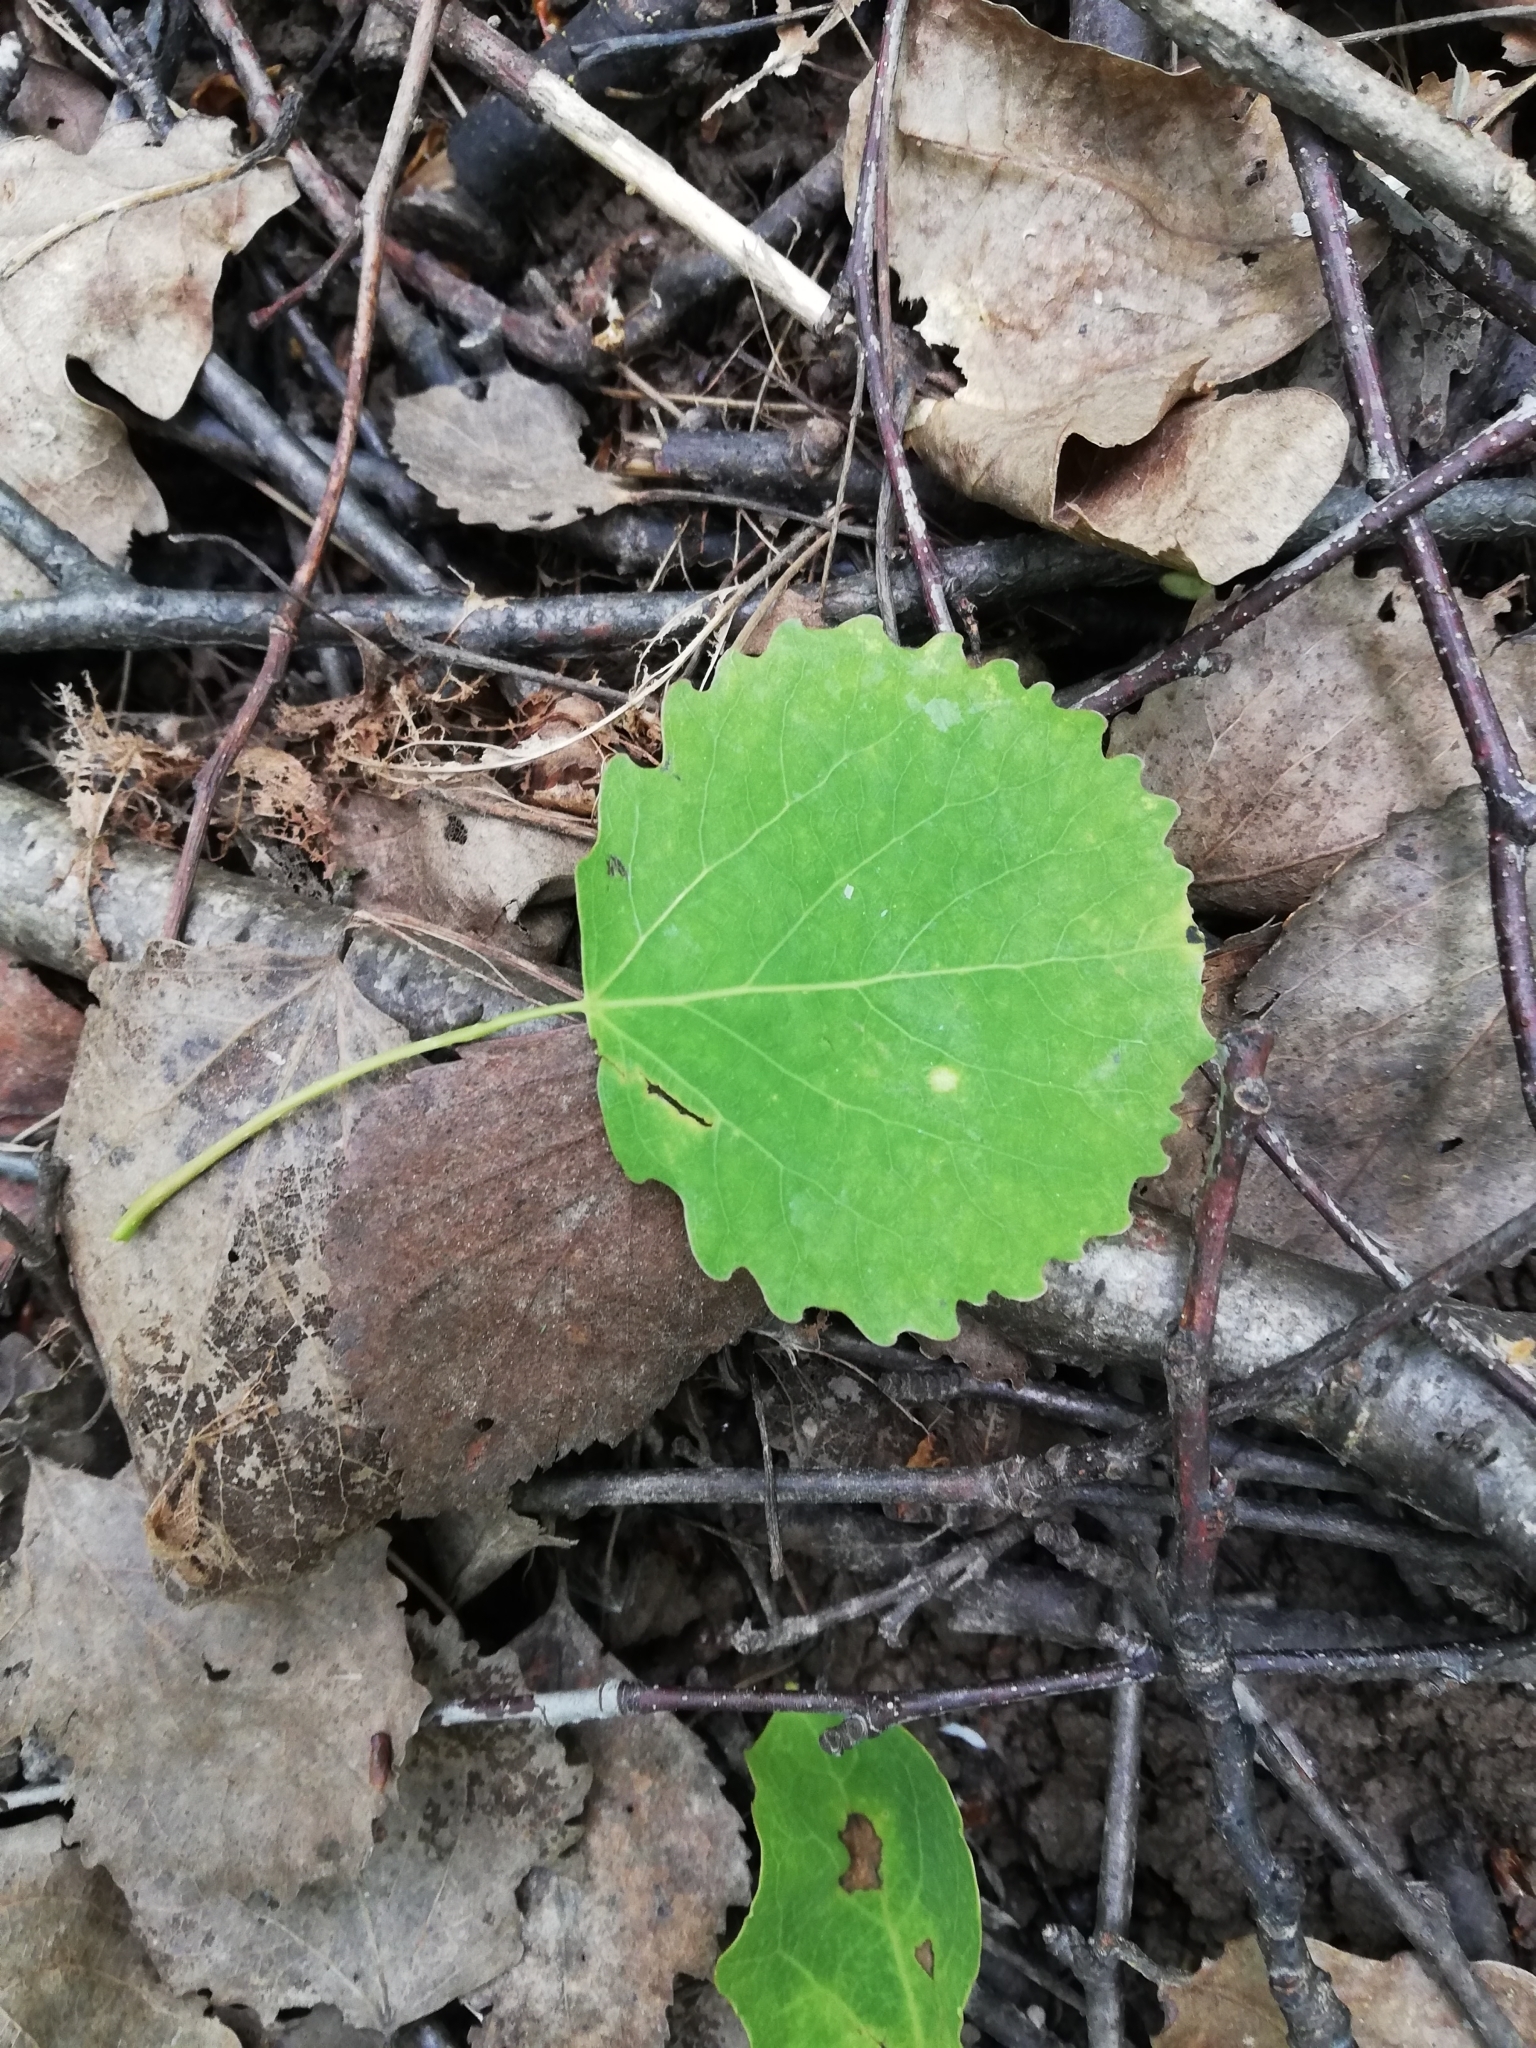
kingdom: Plantae
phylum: Tracheophyta
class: Magnoliopsida
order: Malpighiales
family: Salicaceae
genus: Populus
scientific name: Populus tremula
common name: European aspen
